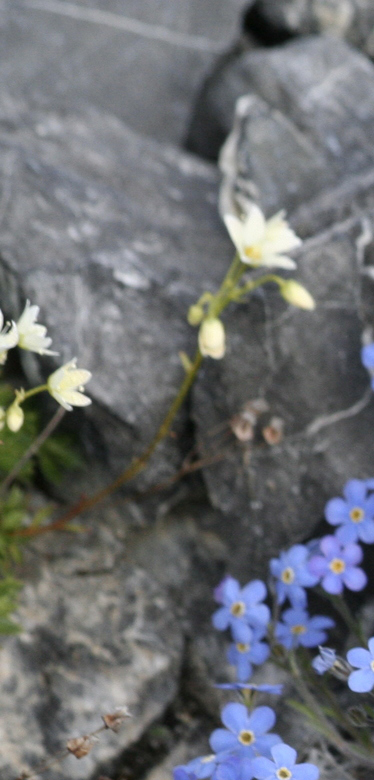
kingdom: Plantae
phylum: Tracheophyta
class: Magnoliopsida
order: Saxifragales
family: Saxifragaceae
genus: Saxifraga
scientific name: Saxifraga tricuspidata
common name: Prickly saxifrage
